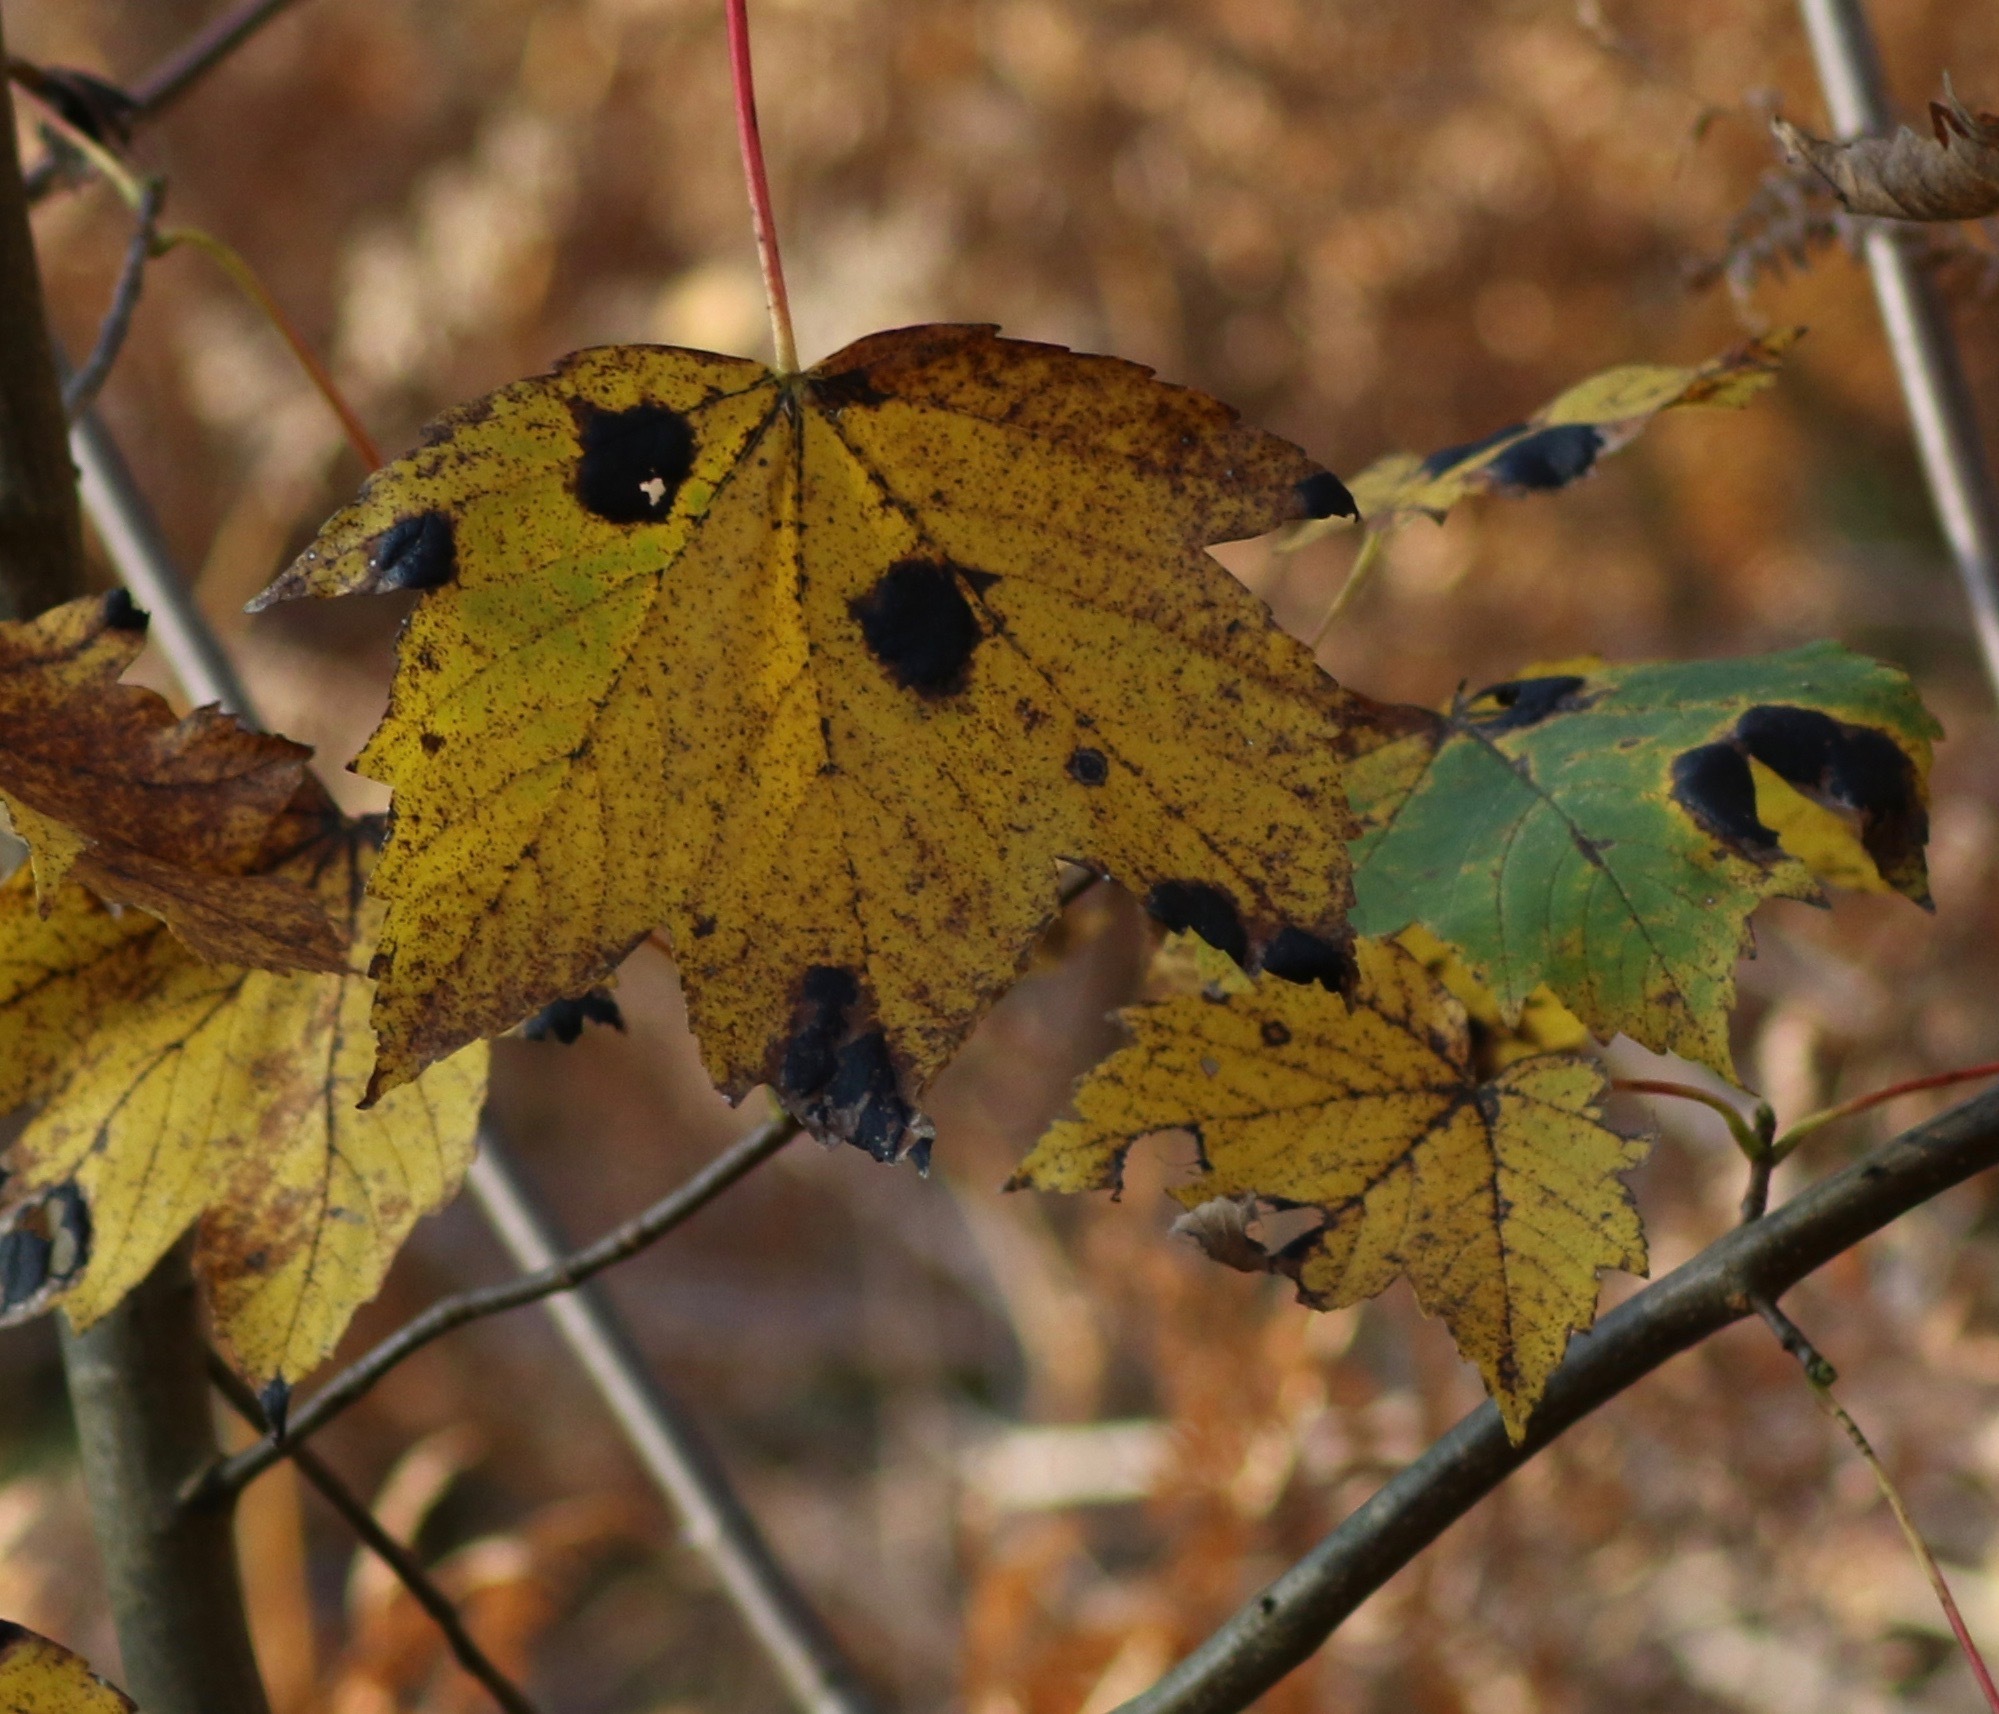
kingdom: Fungi
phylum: Ascomycota
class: Leotiomycetes
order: Rhytismatales
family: Rhytismataceae
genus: Rhytisma
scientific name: Rhytisma acerinum
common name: European tar spot
